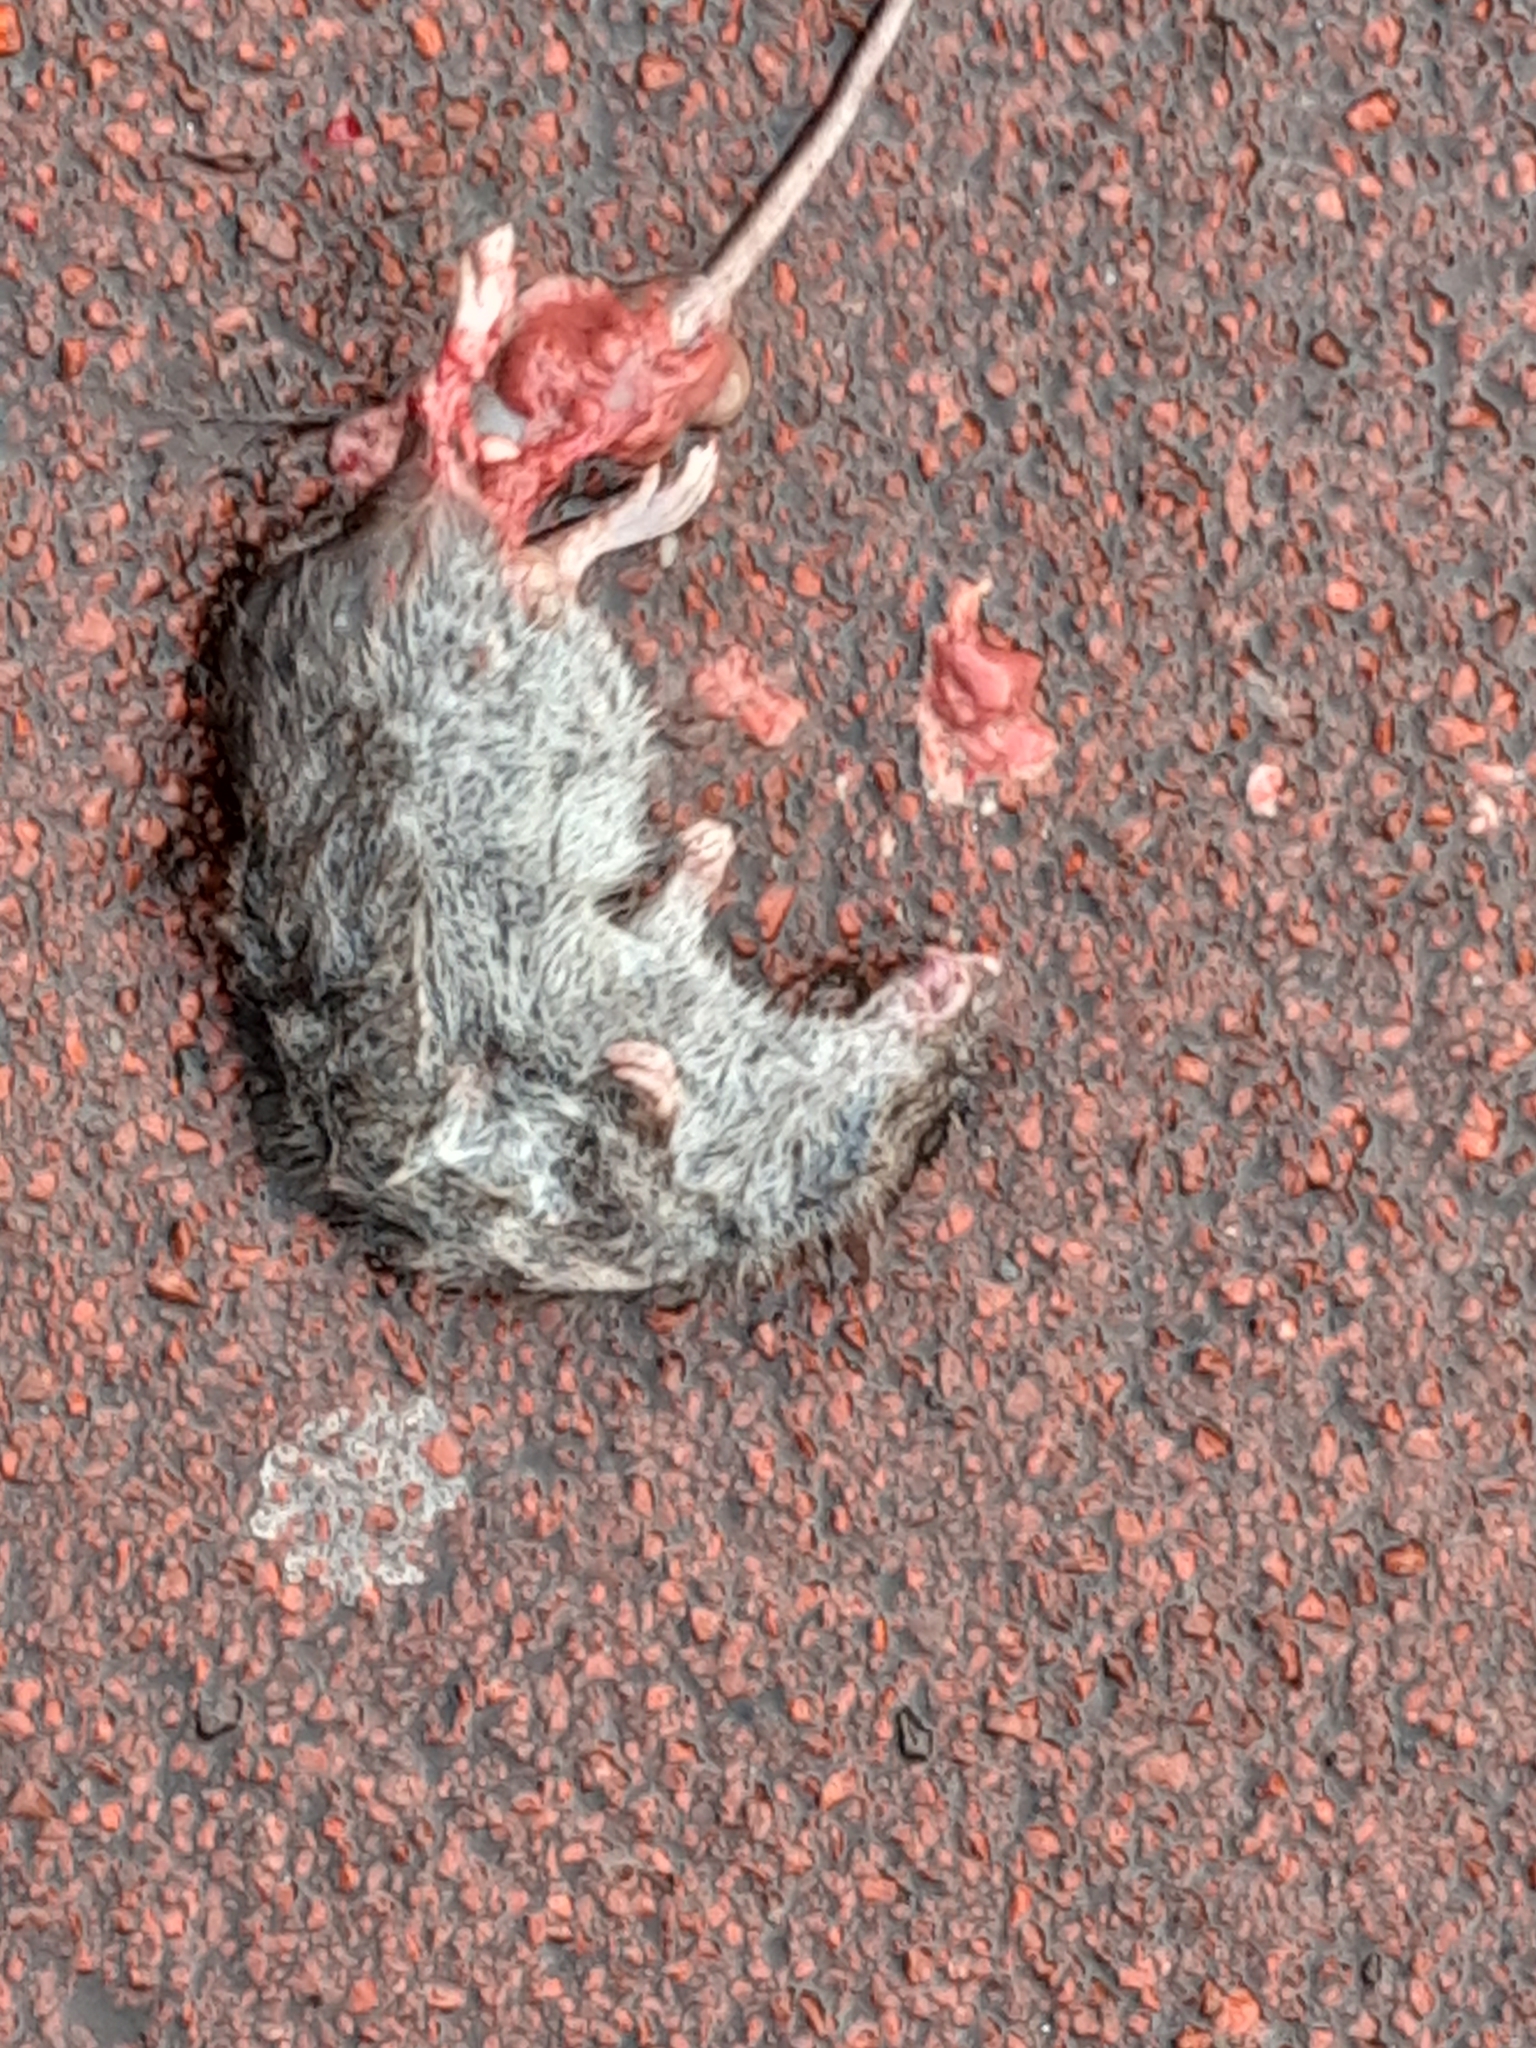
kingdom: Animalia
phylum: Chordata
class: Mammalia
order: Rodentia
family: Muridae
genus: Rattus
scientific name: Rattus norvegicus
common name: Brown rat
